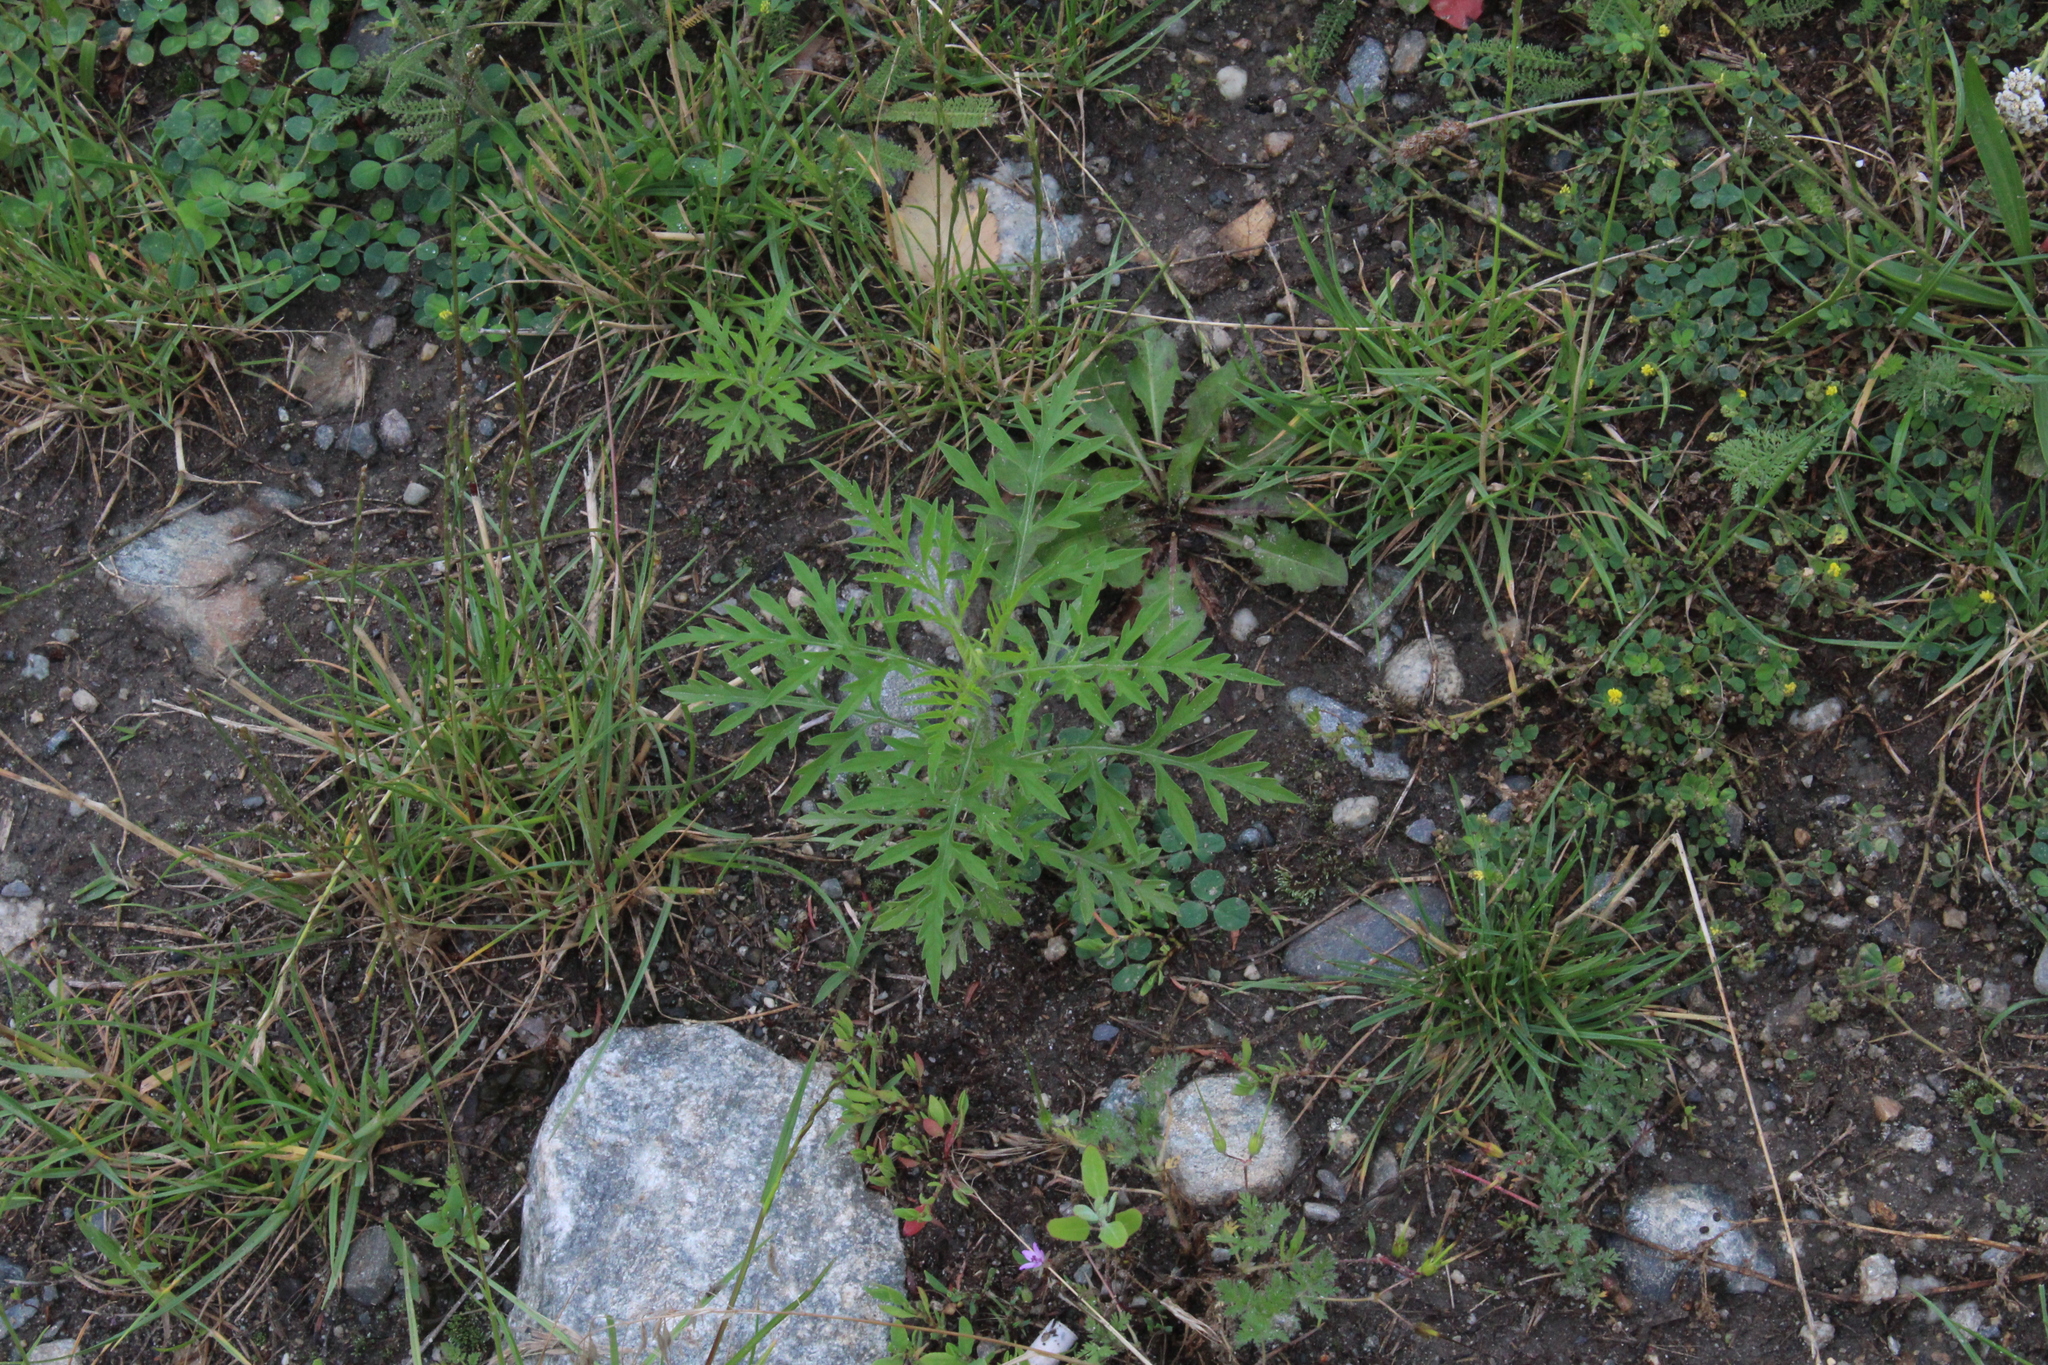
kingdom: Plantae
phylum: Tracheophyta
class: Magnoliopsida
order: Asterales
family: Asteraceae
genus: Ambrosia
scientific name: Ambrosia artemisiifolia
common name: Annual ragweed
